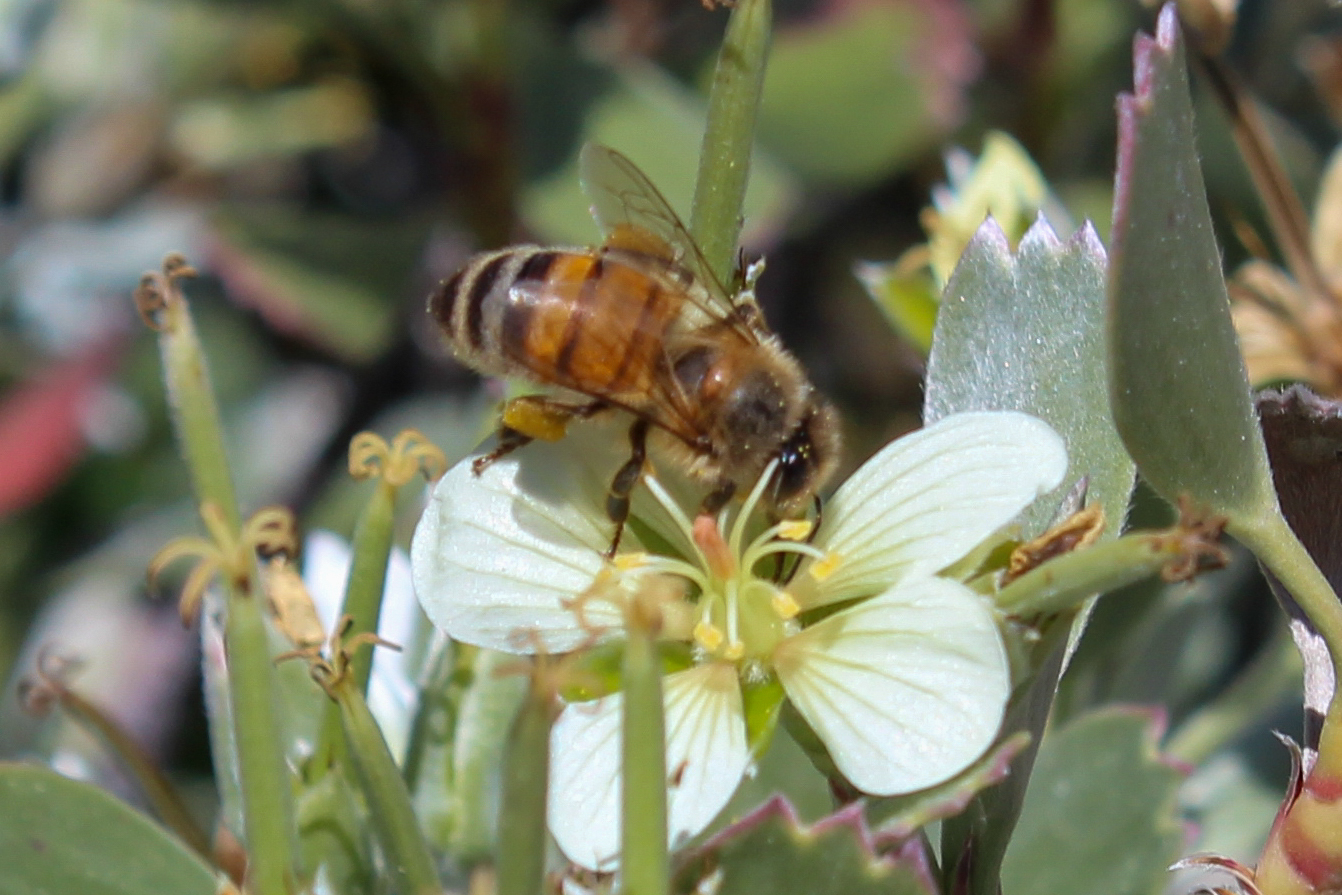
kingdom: Animalia
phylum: Arthropoda
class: Insecta
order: Hymenoptera
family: Apidae
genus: Apis
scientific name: Apis mellifera
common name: Honey bee
